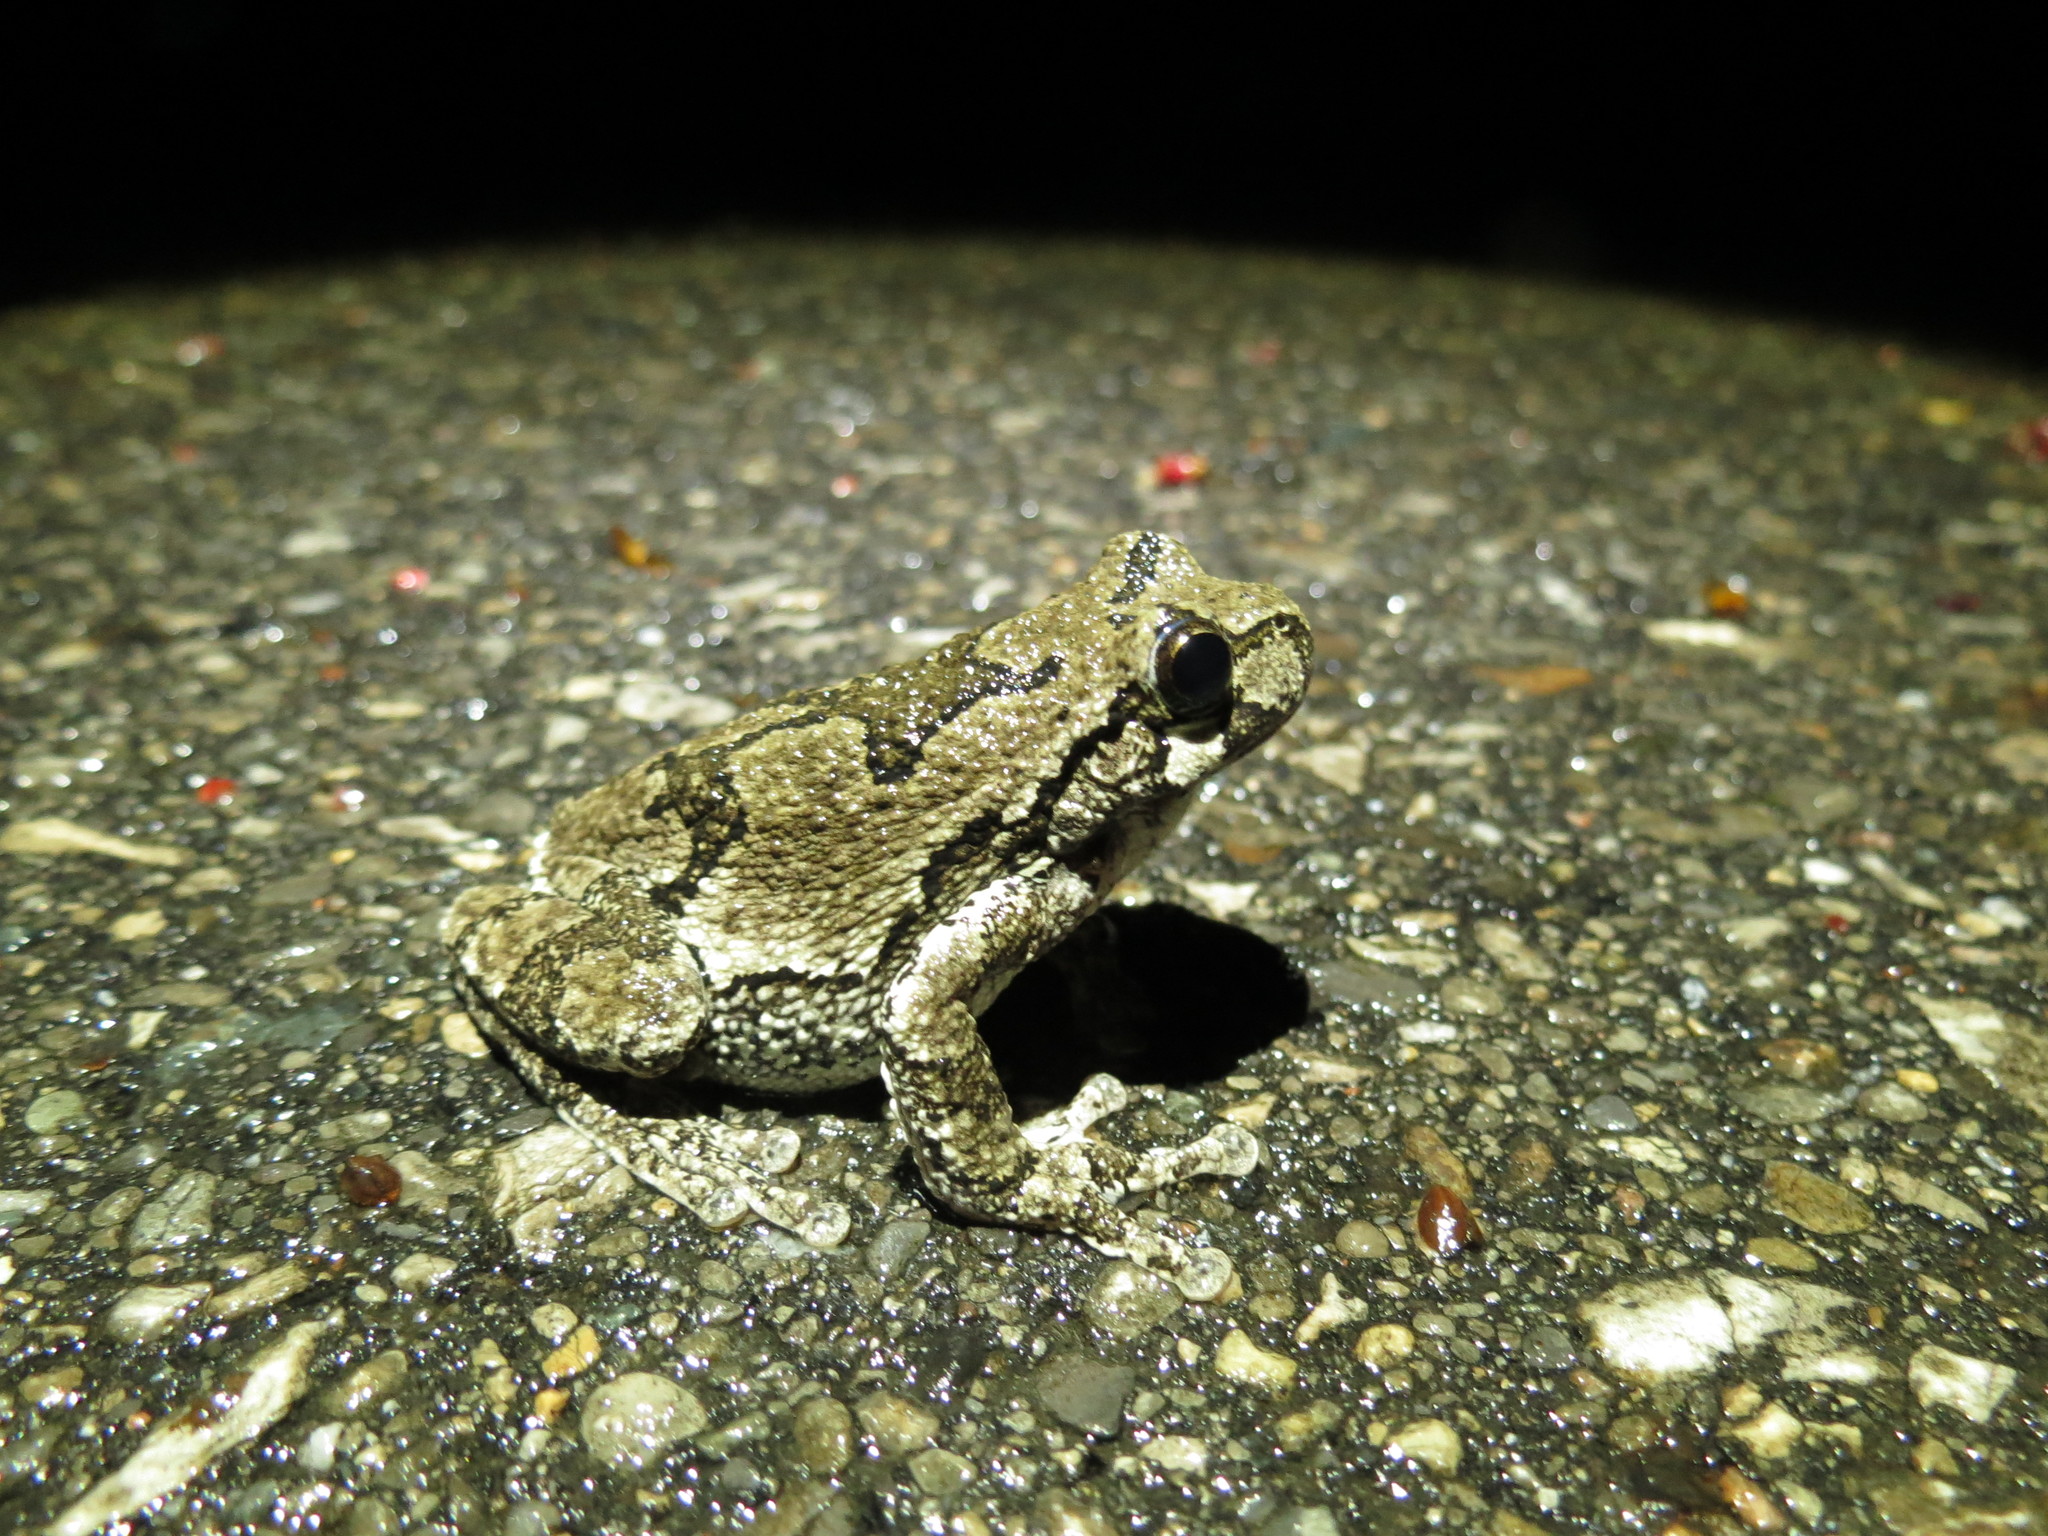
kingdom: Animalia
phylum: Chordata
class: Amphibia
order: Anura
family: Hylidae
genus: Dryophytes
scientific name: Dryophytes versicolor
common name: Gray treefrog
